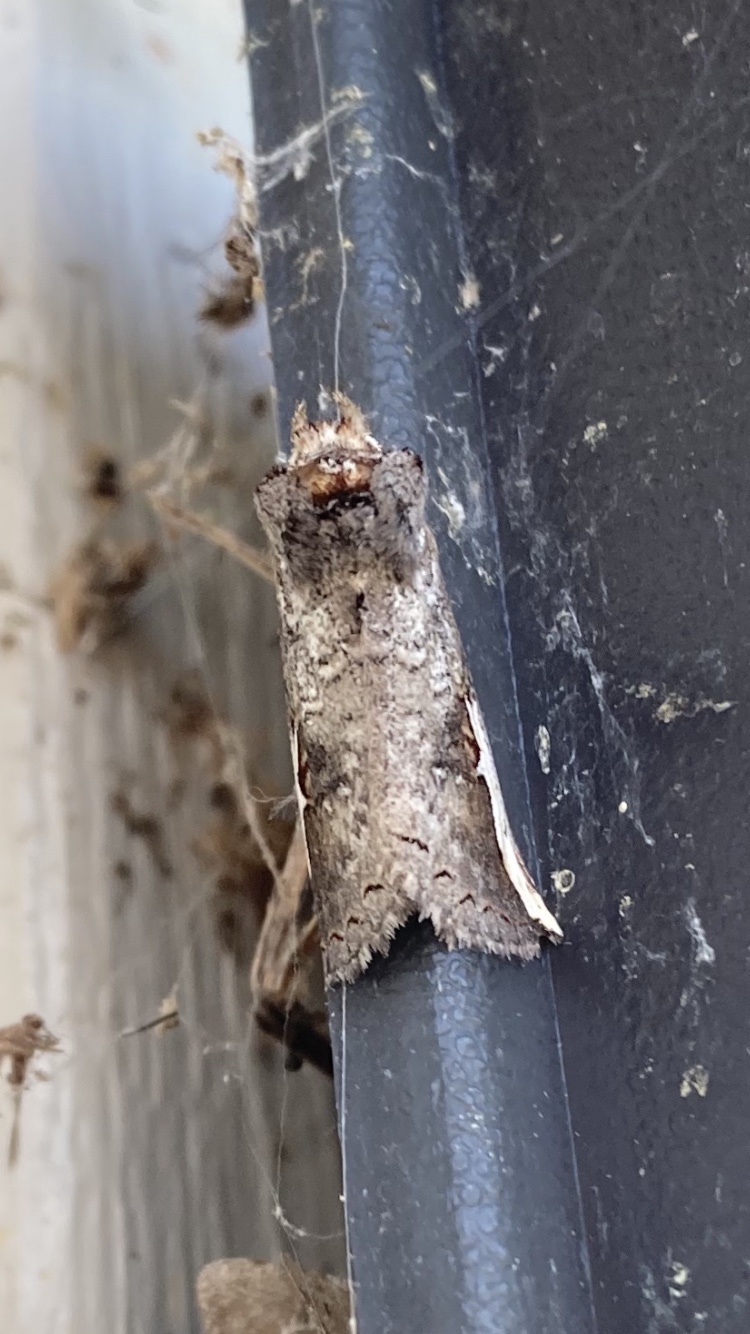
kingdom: Animalia
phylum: Arthropoda
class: Insecta
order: Lepidoptera
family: Notodontidae
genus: Symmerista
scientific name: Symmerista
